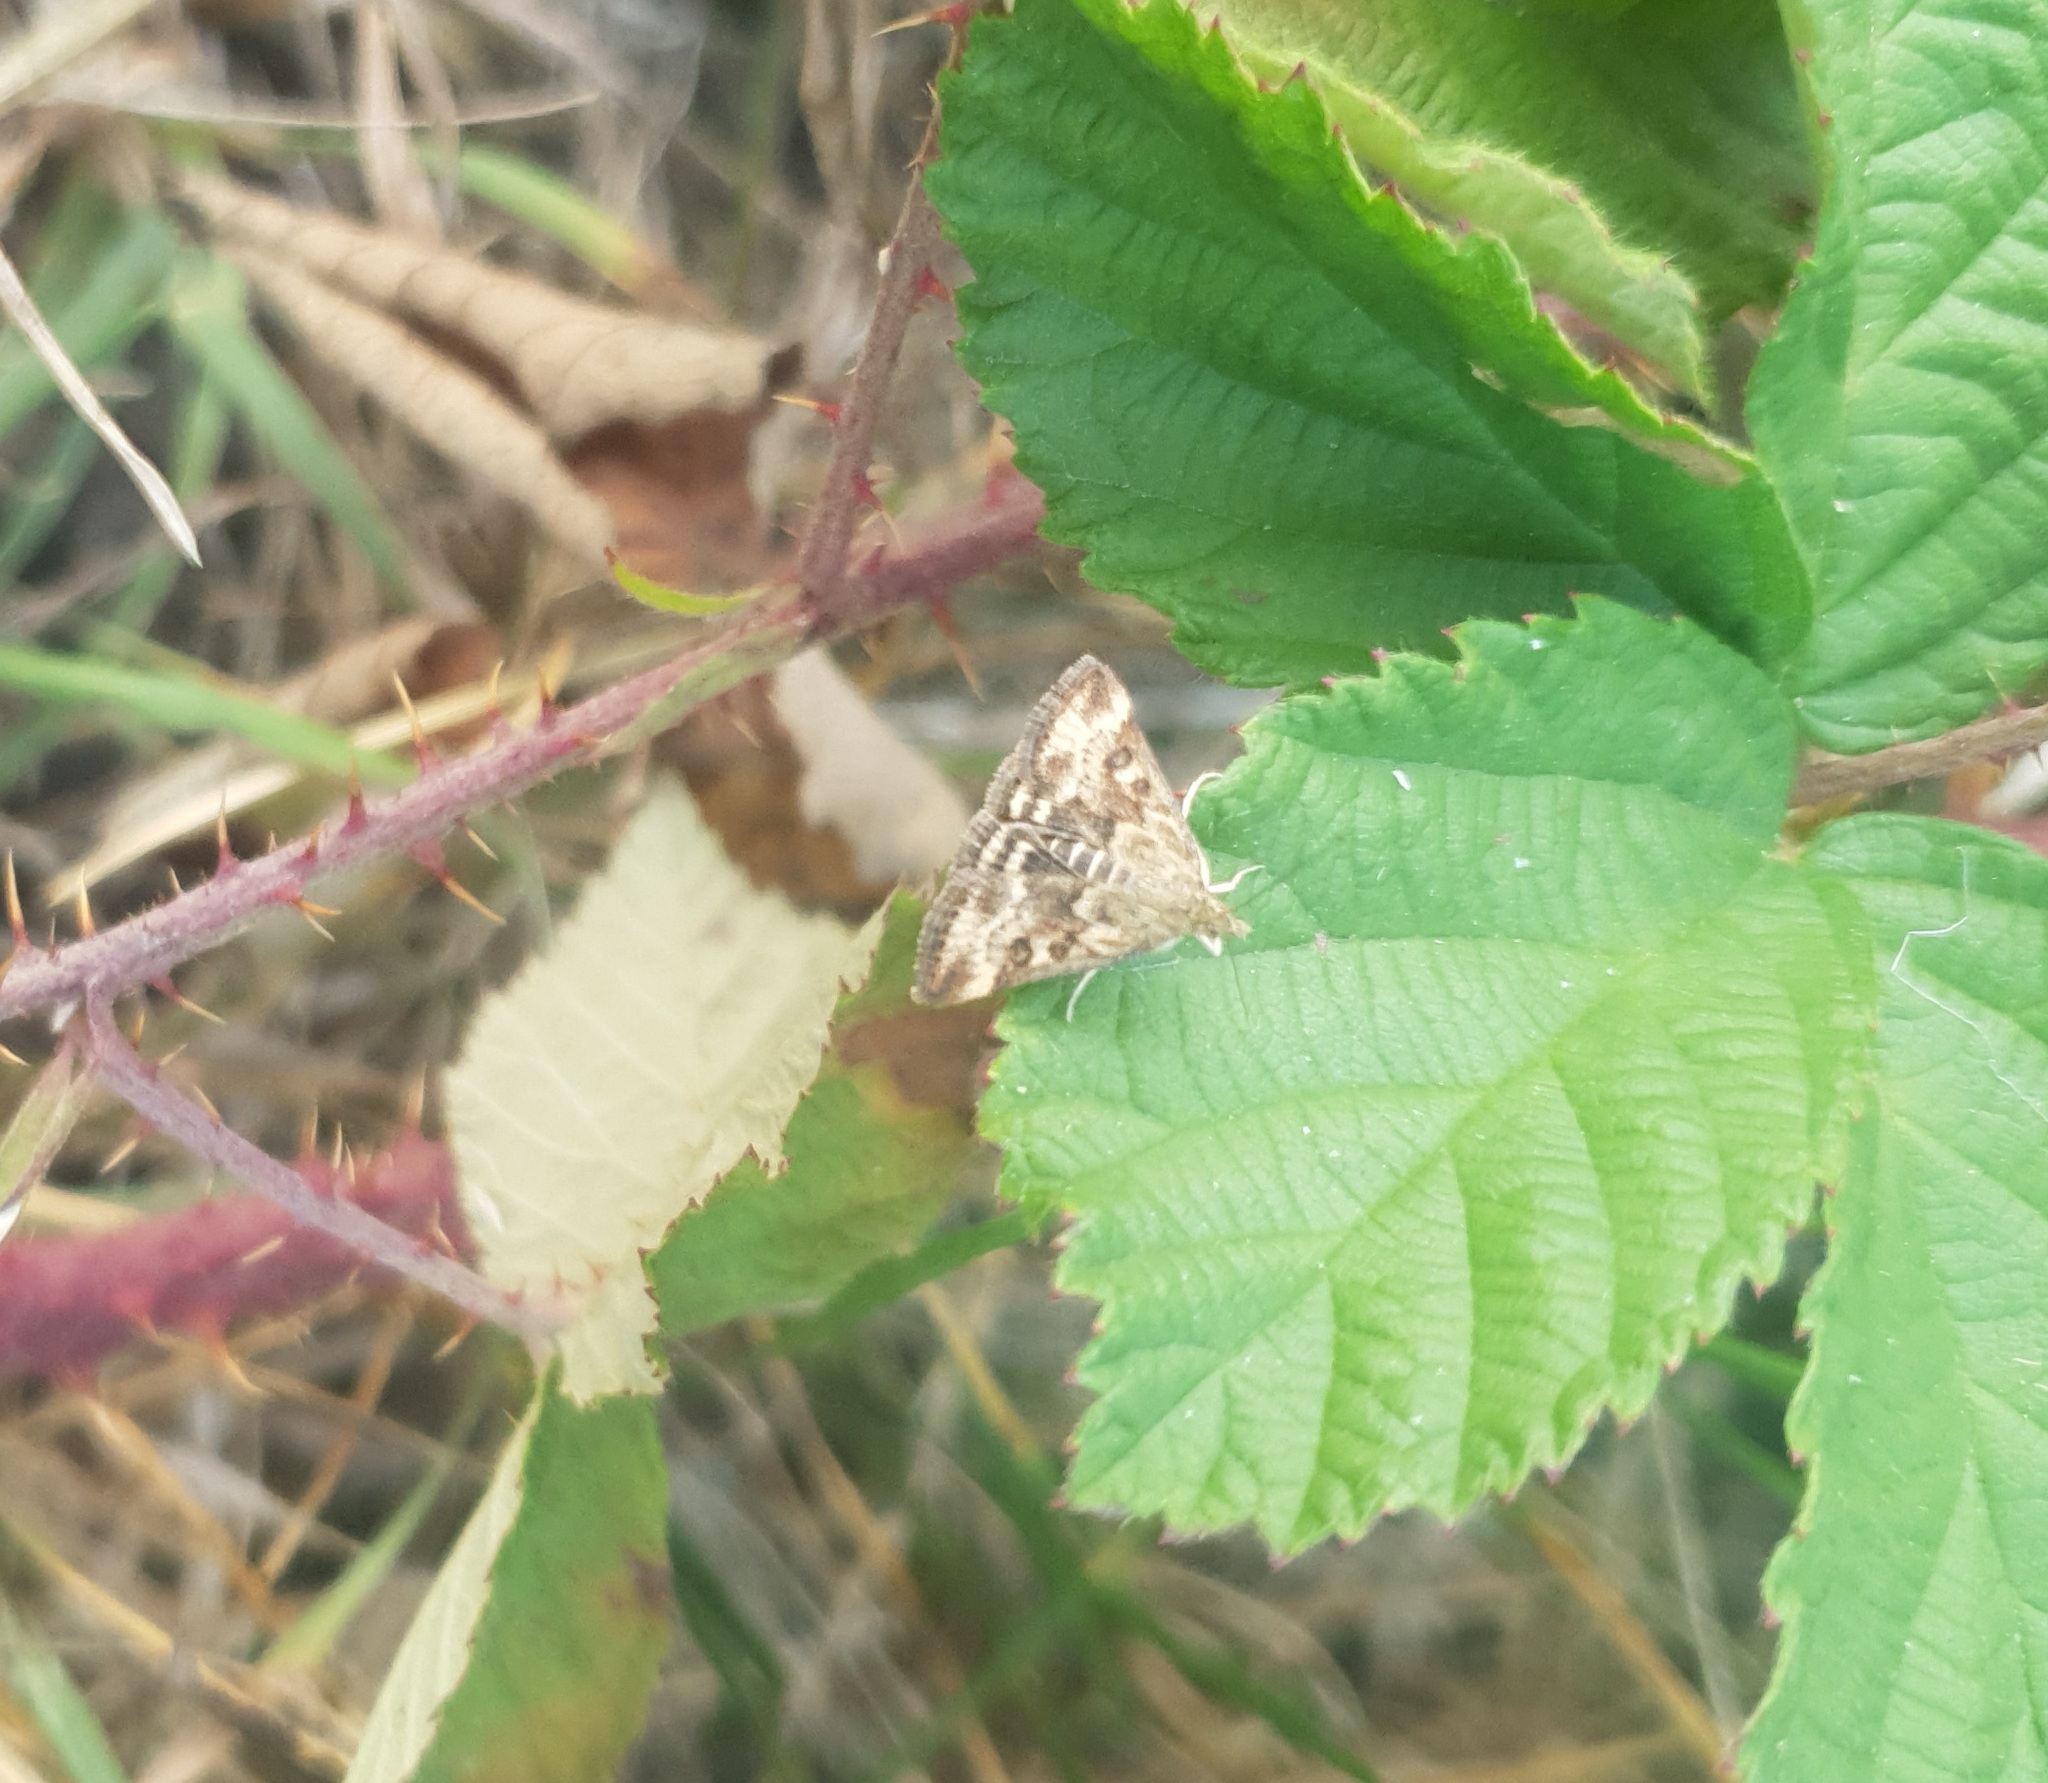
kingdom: Animalia
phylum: Arthropoda
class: Insecta
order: Lepidoptera
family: Crambidae
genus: Pyrausta
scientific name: Pyrausta despicata
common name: Straw-barred pearl
